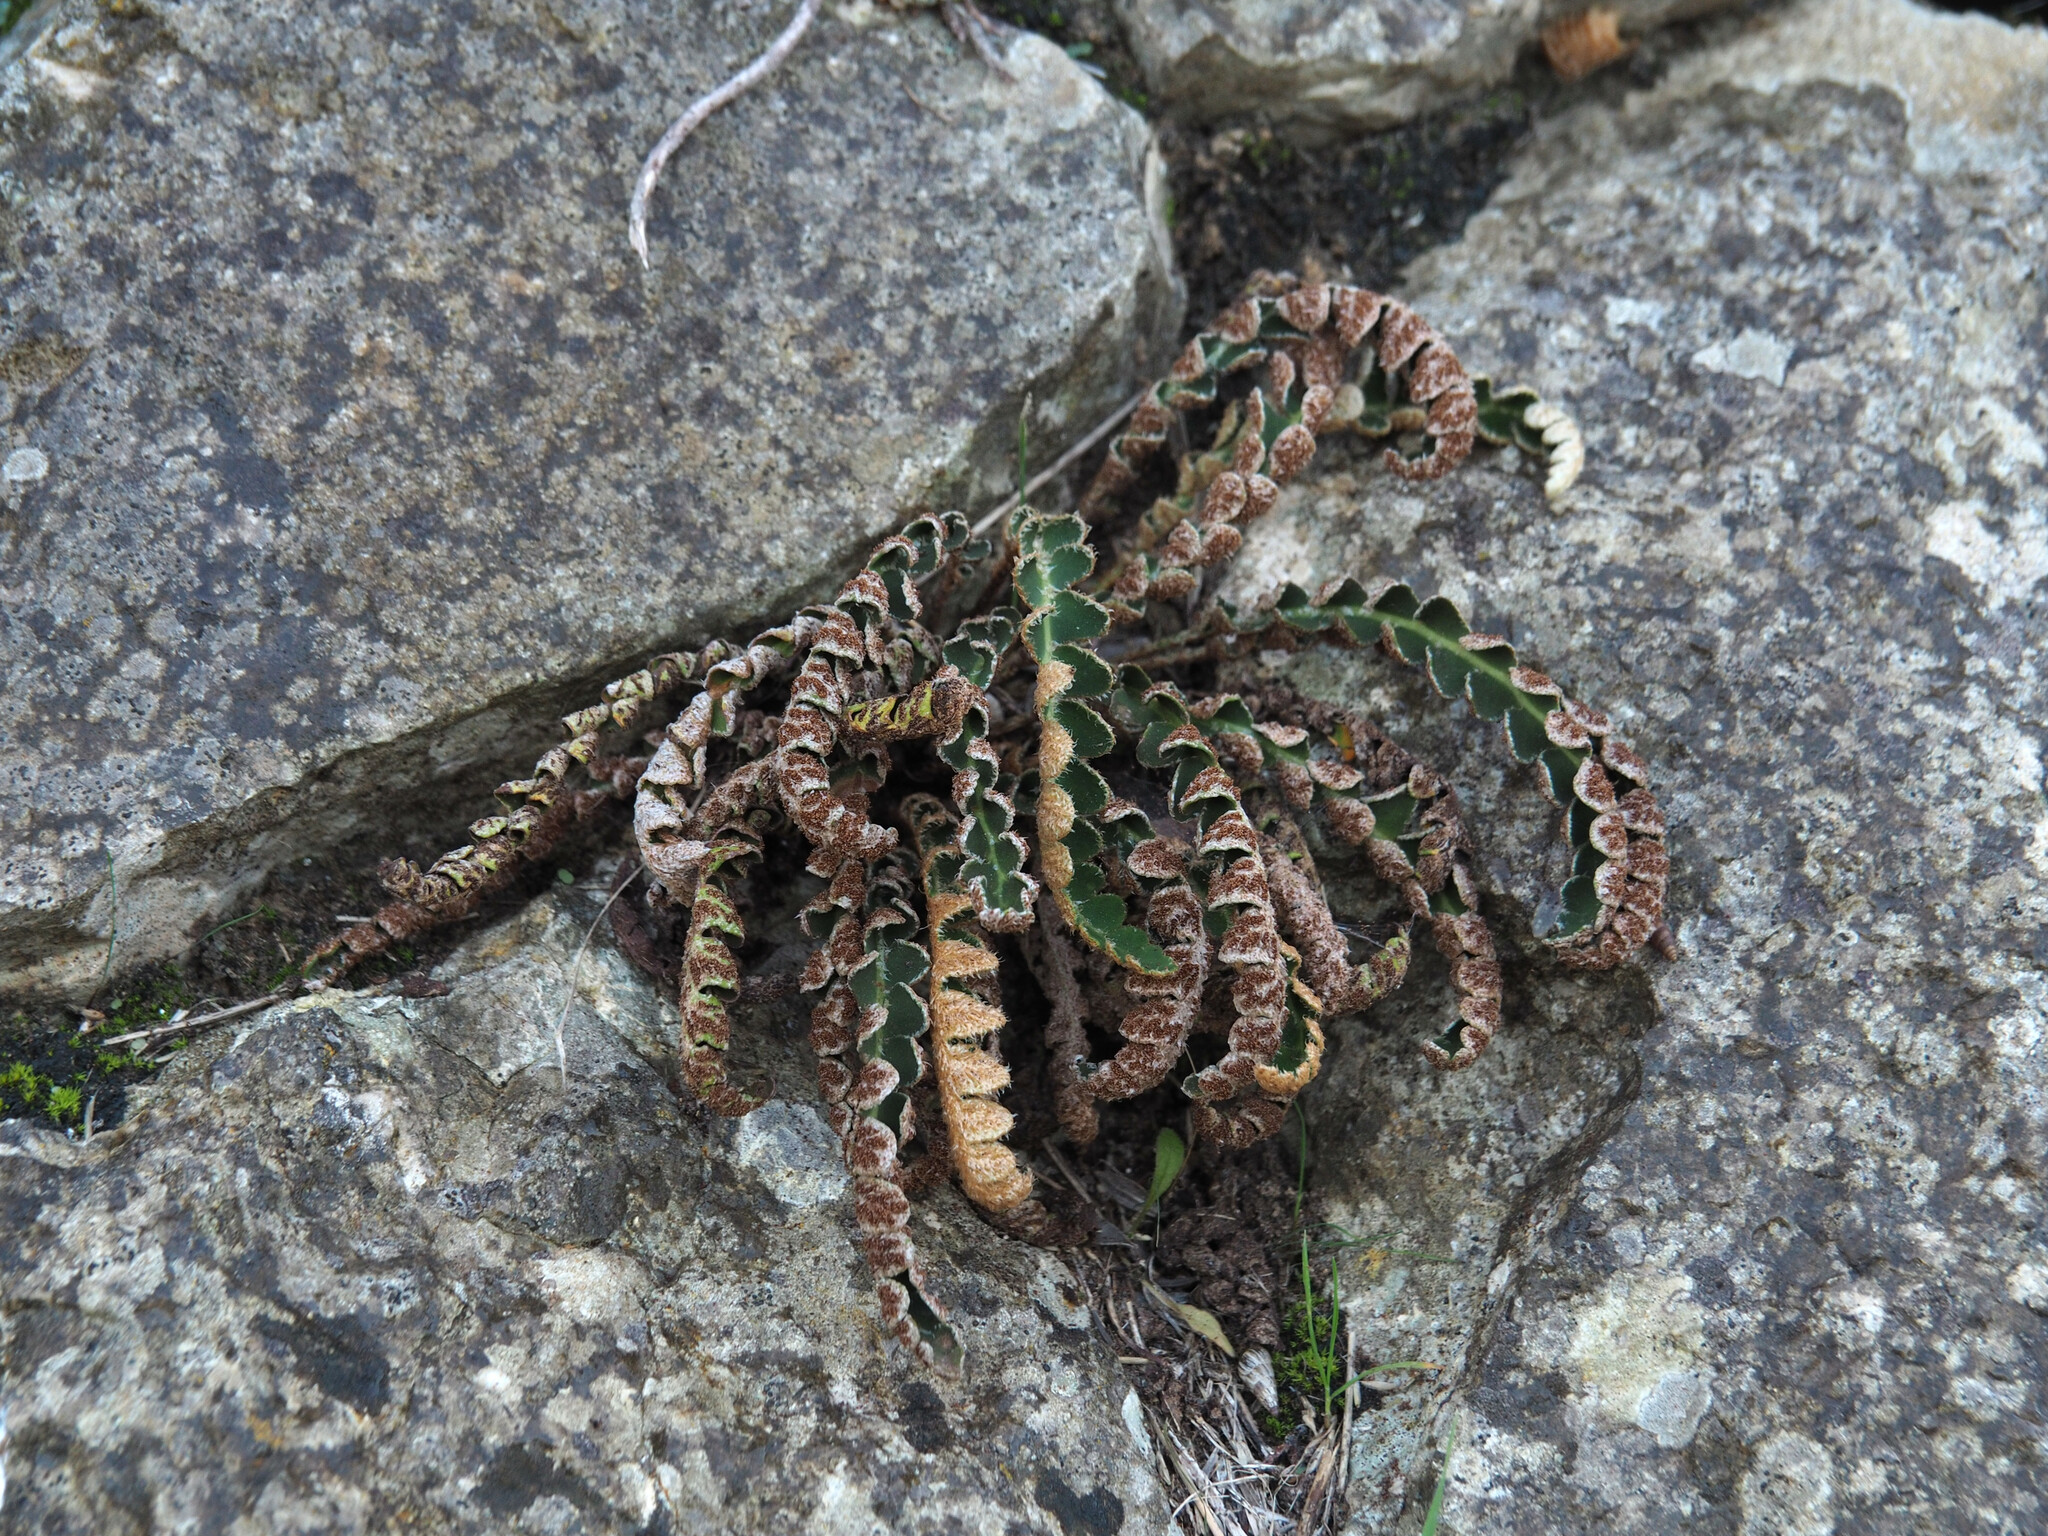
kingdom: Plantae
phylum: Tracheophyta
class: Polypodiopsida
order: Polypodiales
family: Aspleniaceae
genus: Asplenium
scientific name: Asplenium ceterach
